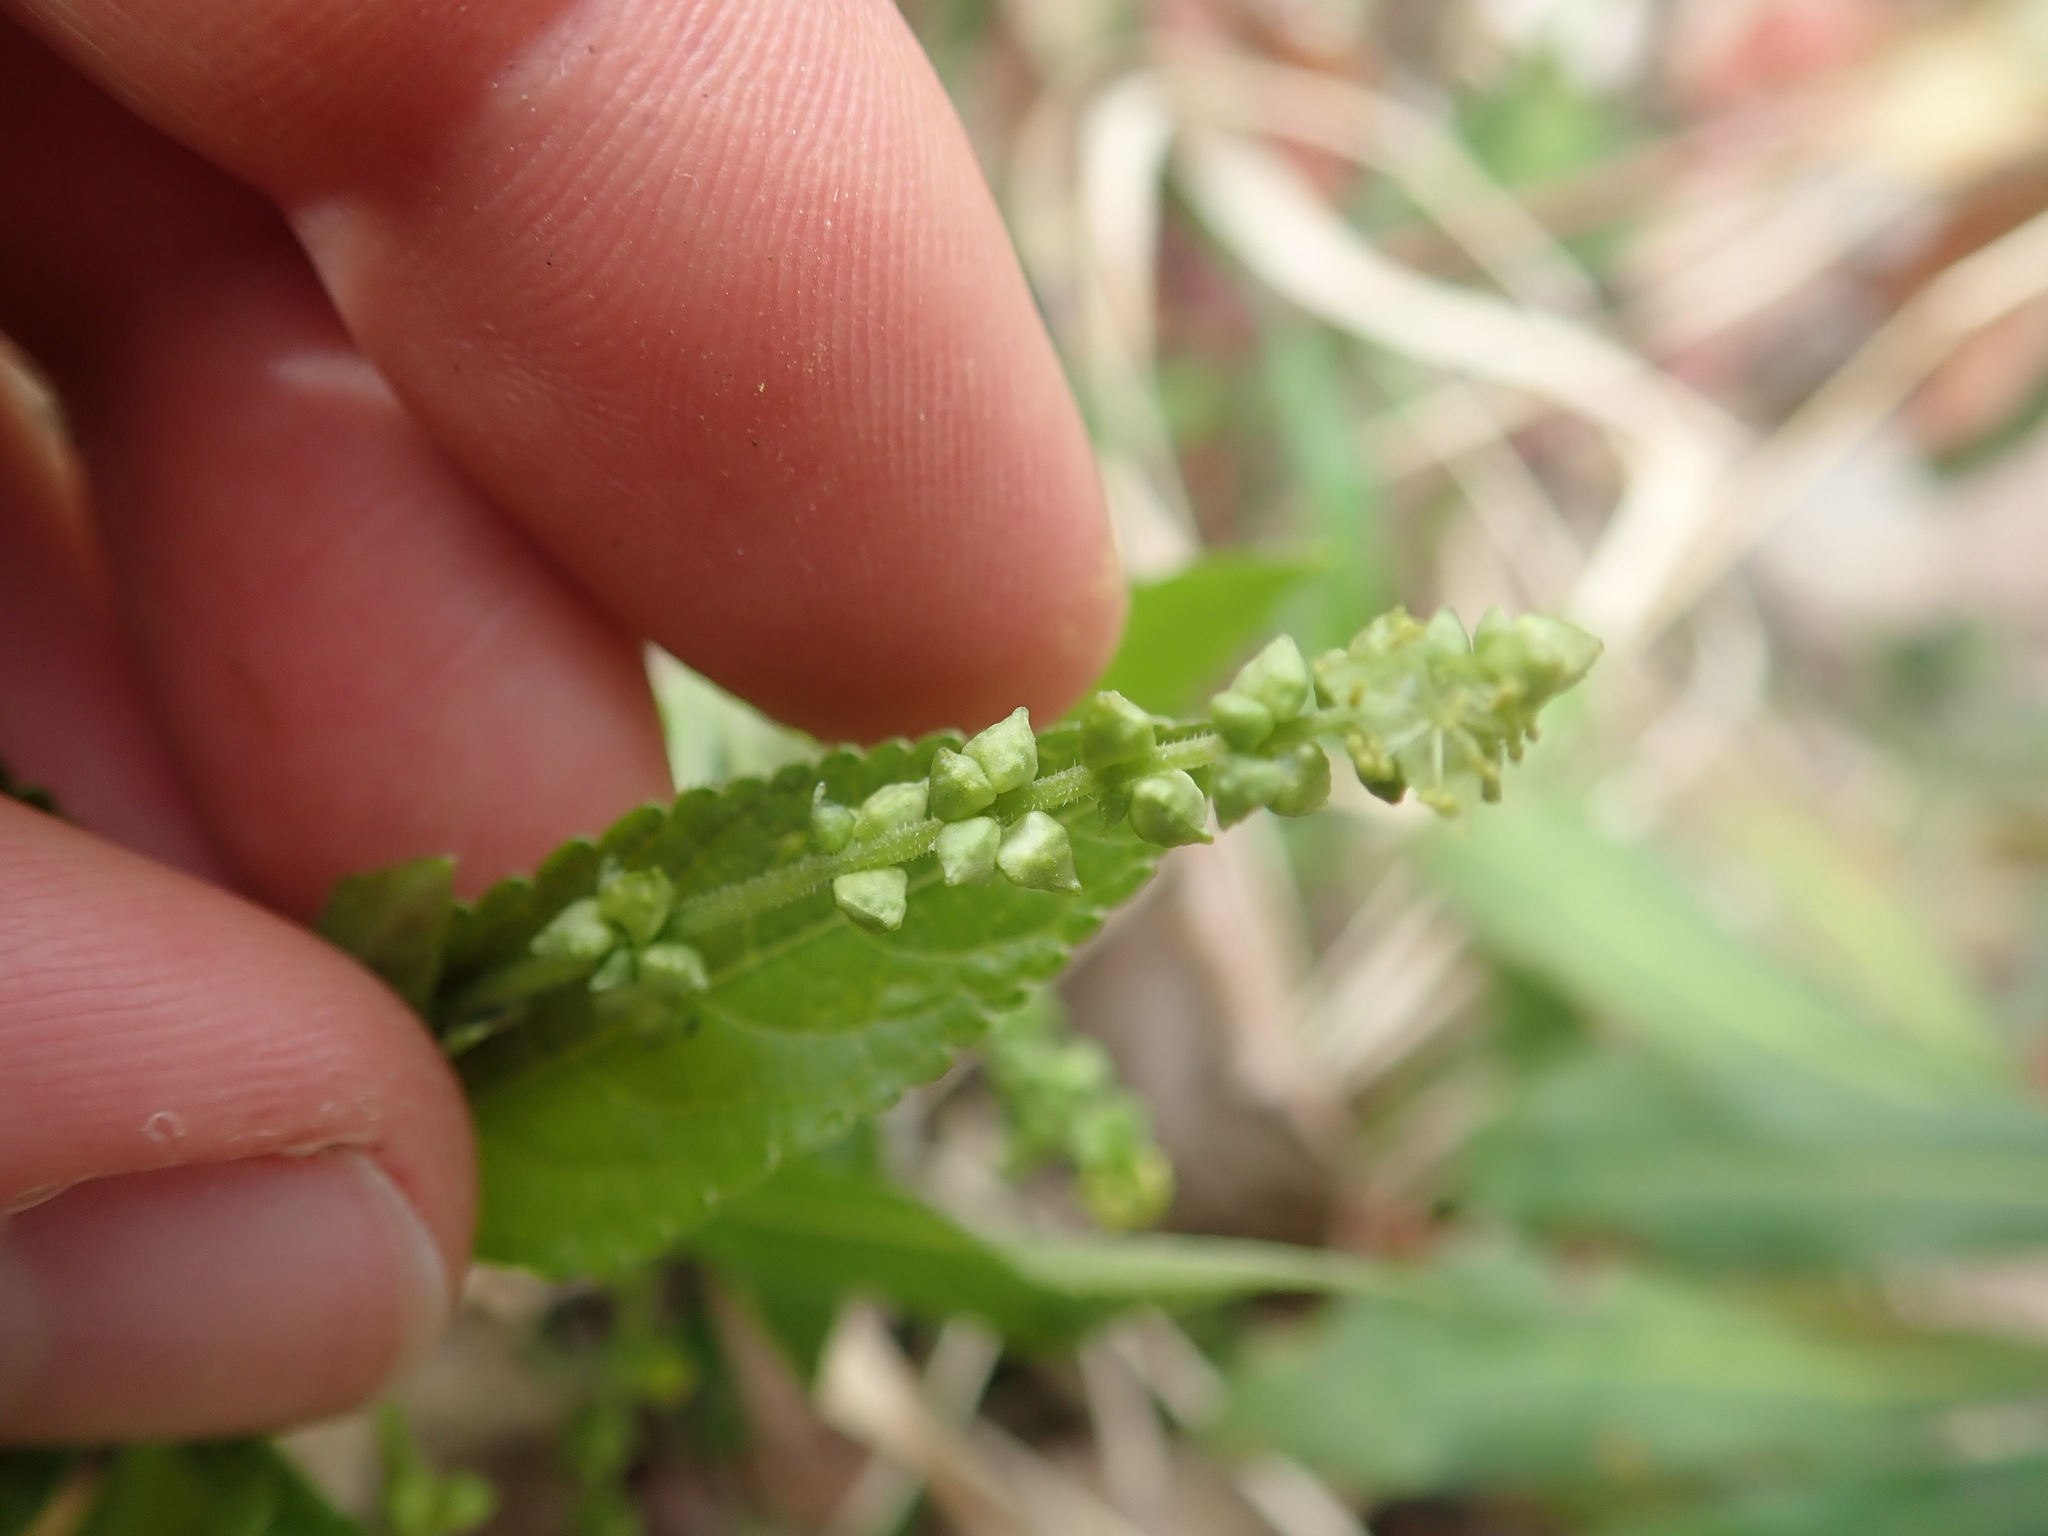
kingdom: Plantae
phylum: Tracheophyta
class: Magnoliopsida
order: Malpighiales
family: Euphorbiaceae
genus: Mercurialis
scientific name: Mercurialis perennis
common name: Dog mercury
